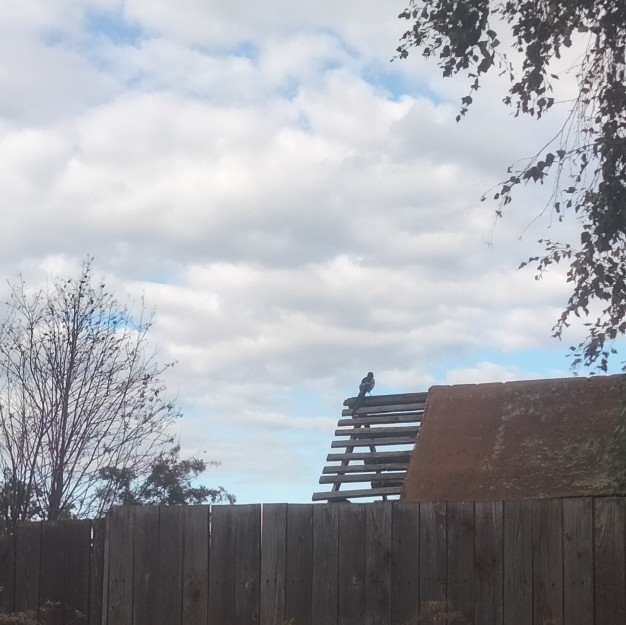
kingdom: Animalia
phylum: Chordata
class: Aves
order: Passeriformes
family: Corvidae
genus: Pica
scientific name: Pica pica
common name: Eurasian magpie
